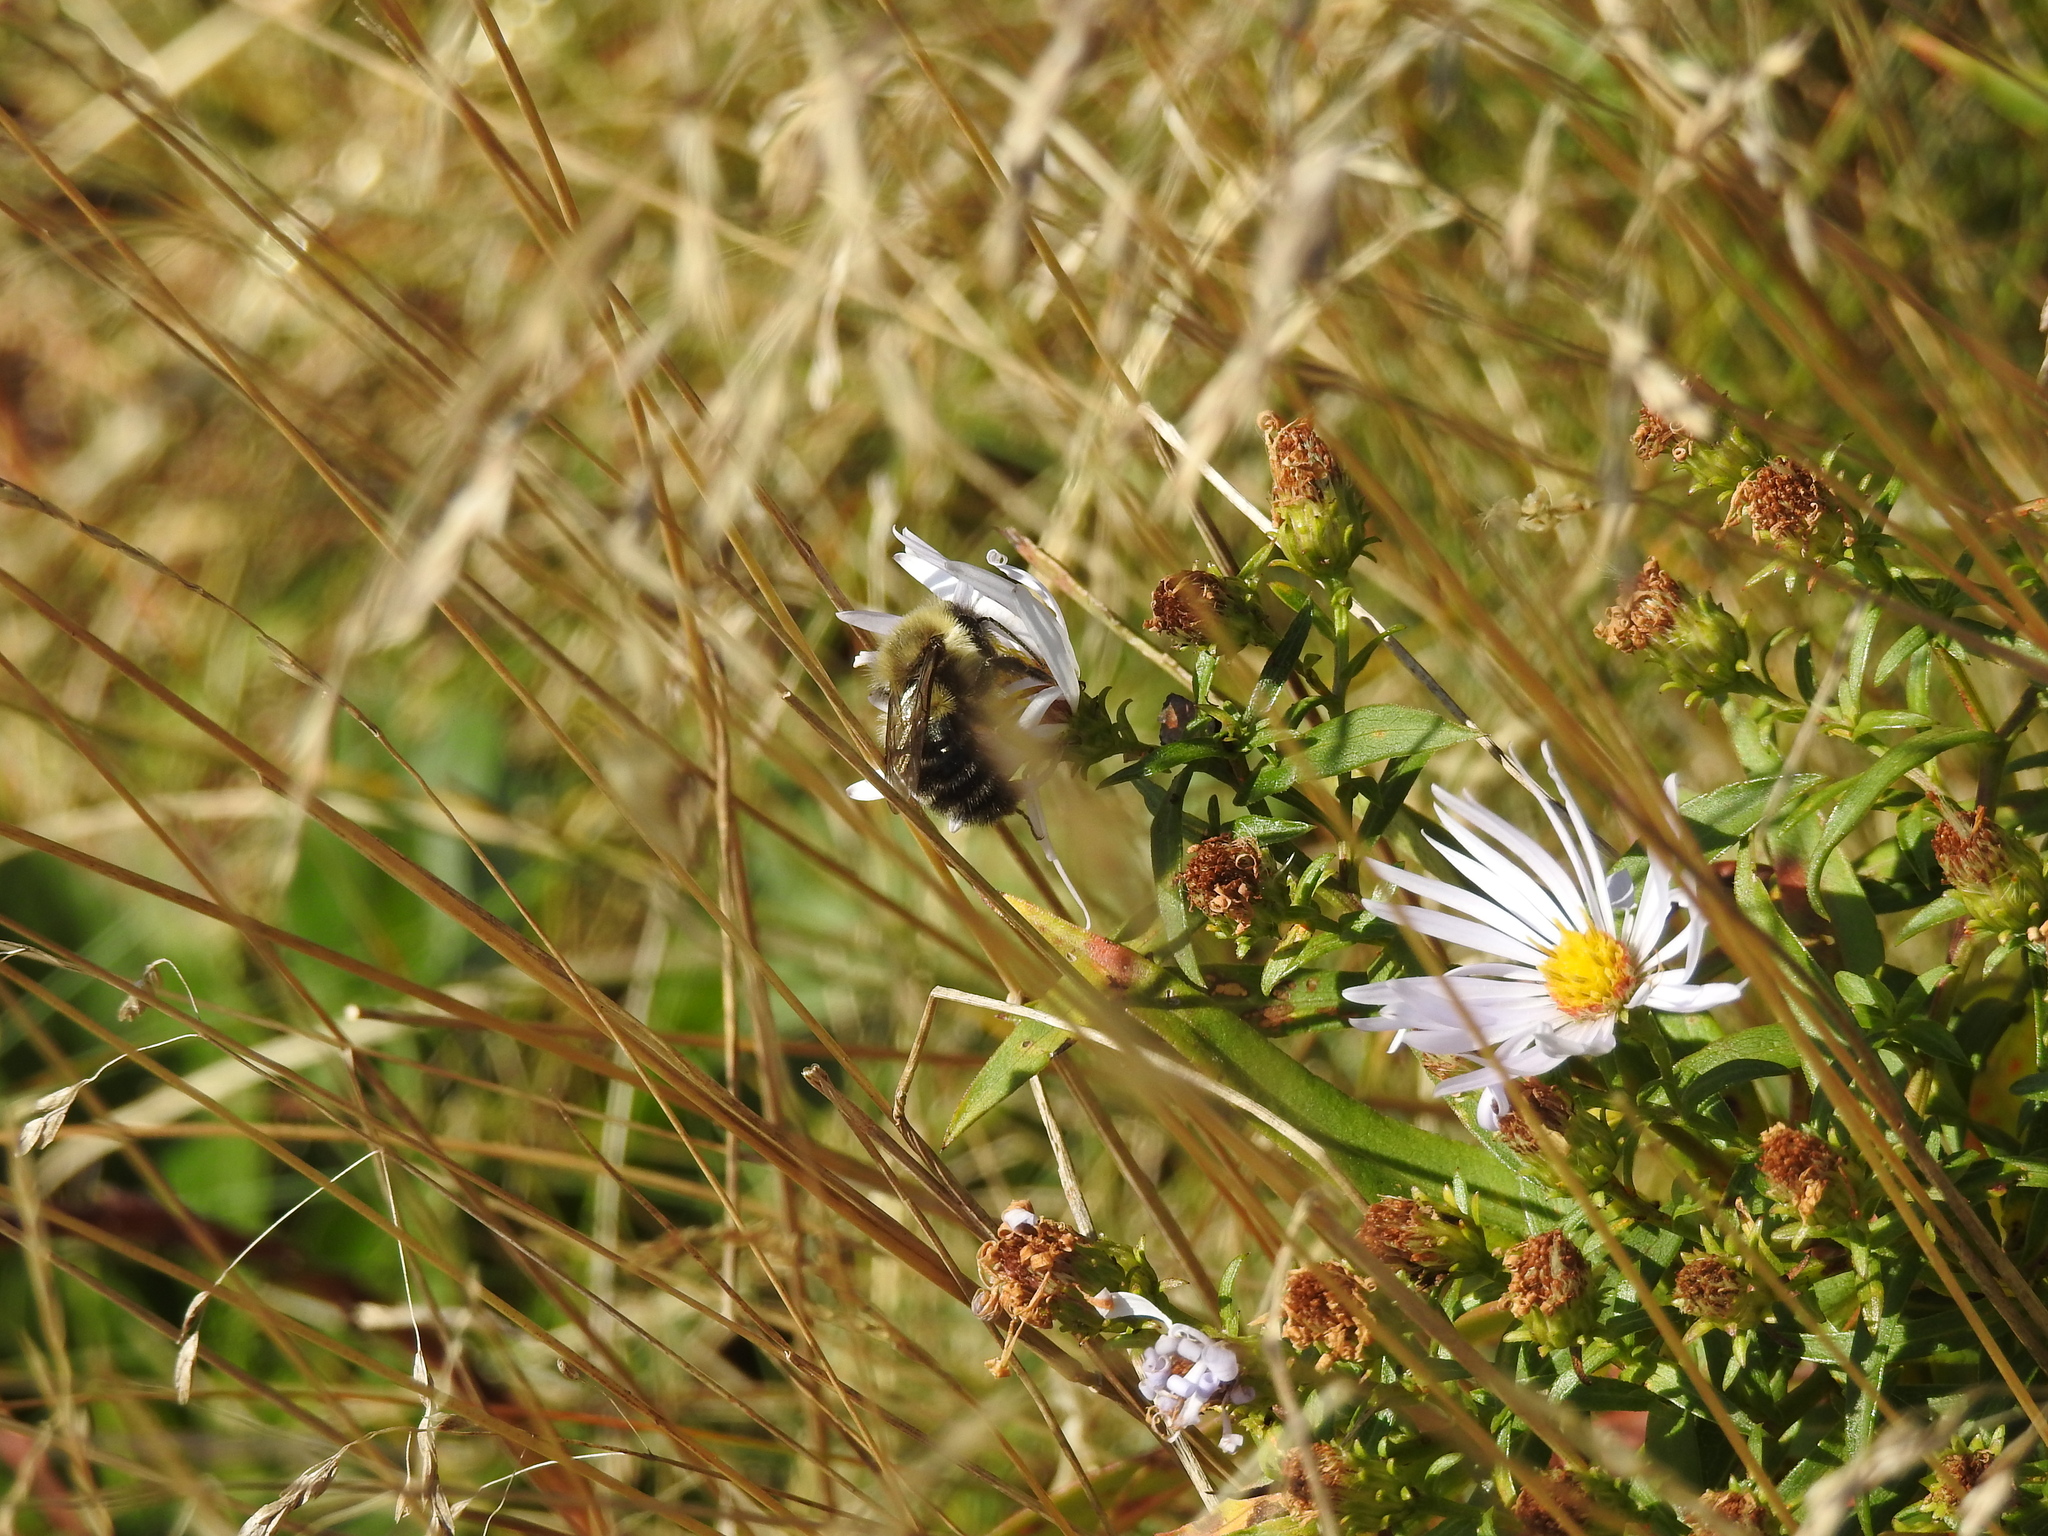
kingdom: Animalia
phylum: Arthropoda
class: Insecta
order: Hymenoptera
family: Apidae
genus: Bombus
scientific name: Bombus impatiens
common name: Common eastern bumble bee
